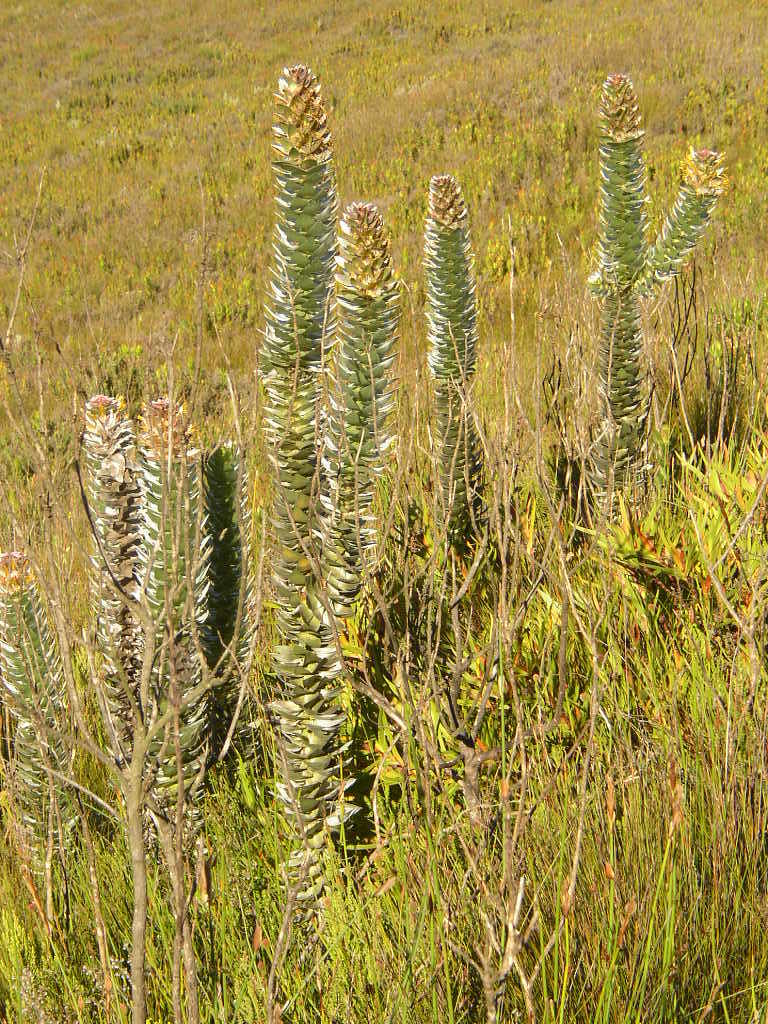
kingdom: Plantae
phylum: Tracheophyta
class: Magnoliopsida
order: Proteales
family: Proteaceae
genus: Mimetes
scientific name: Mimetes stokoei
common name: Mace pagoda
